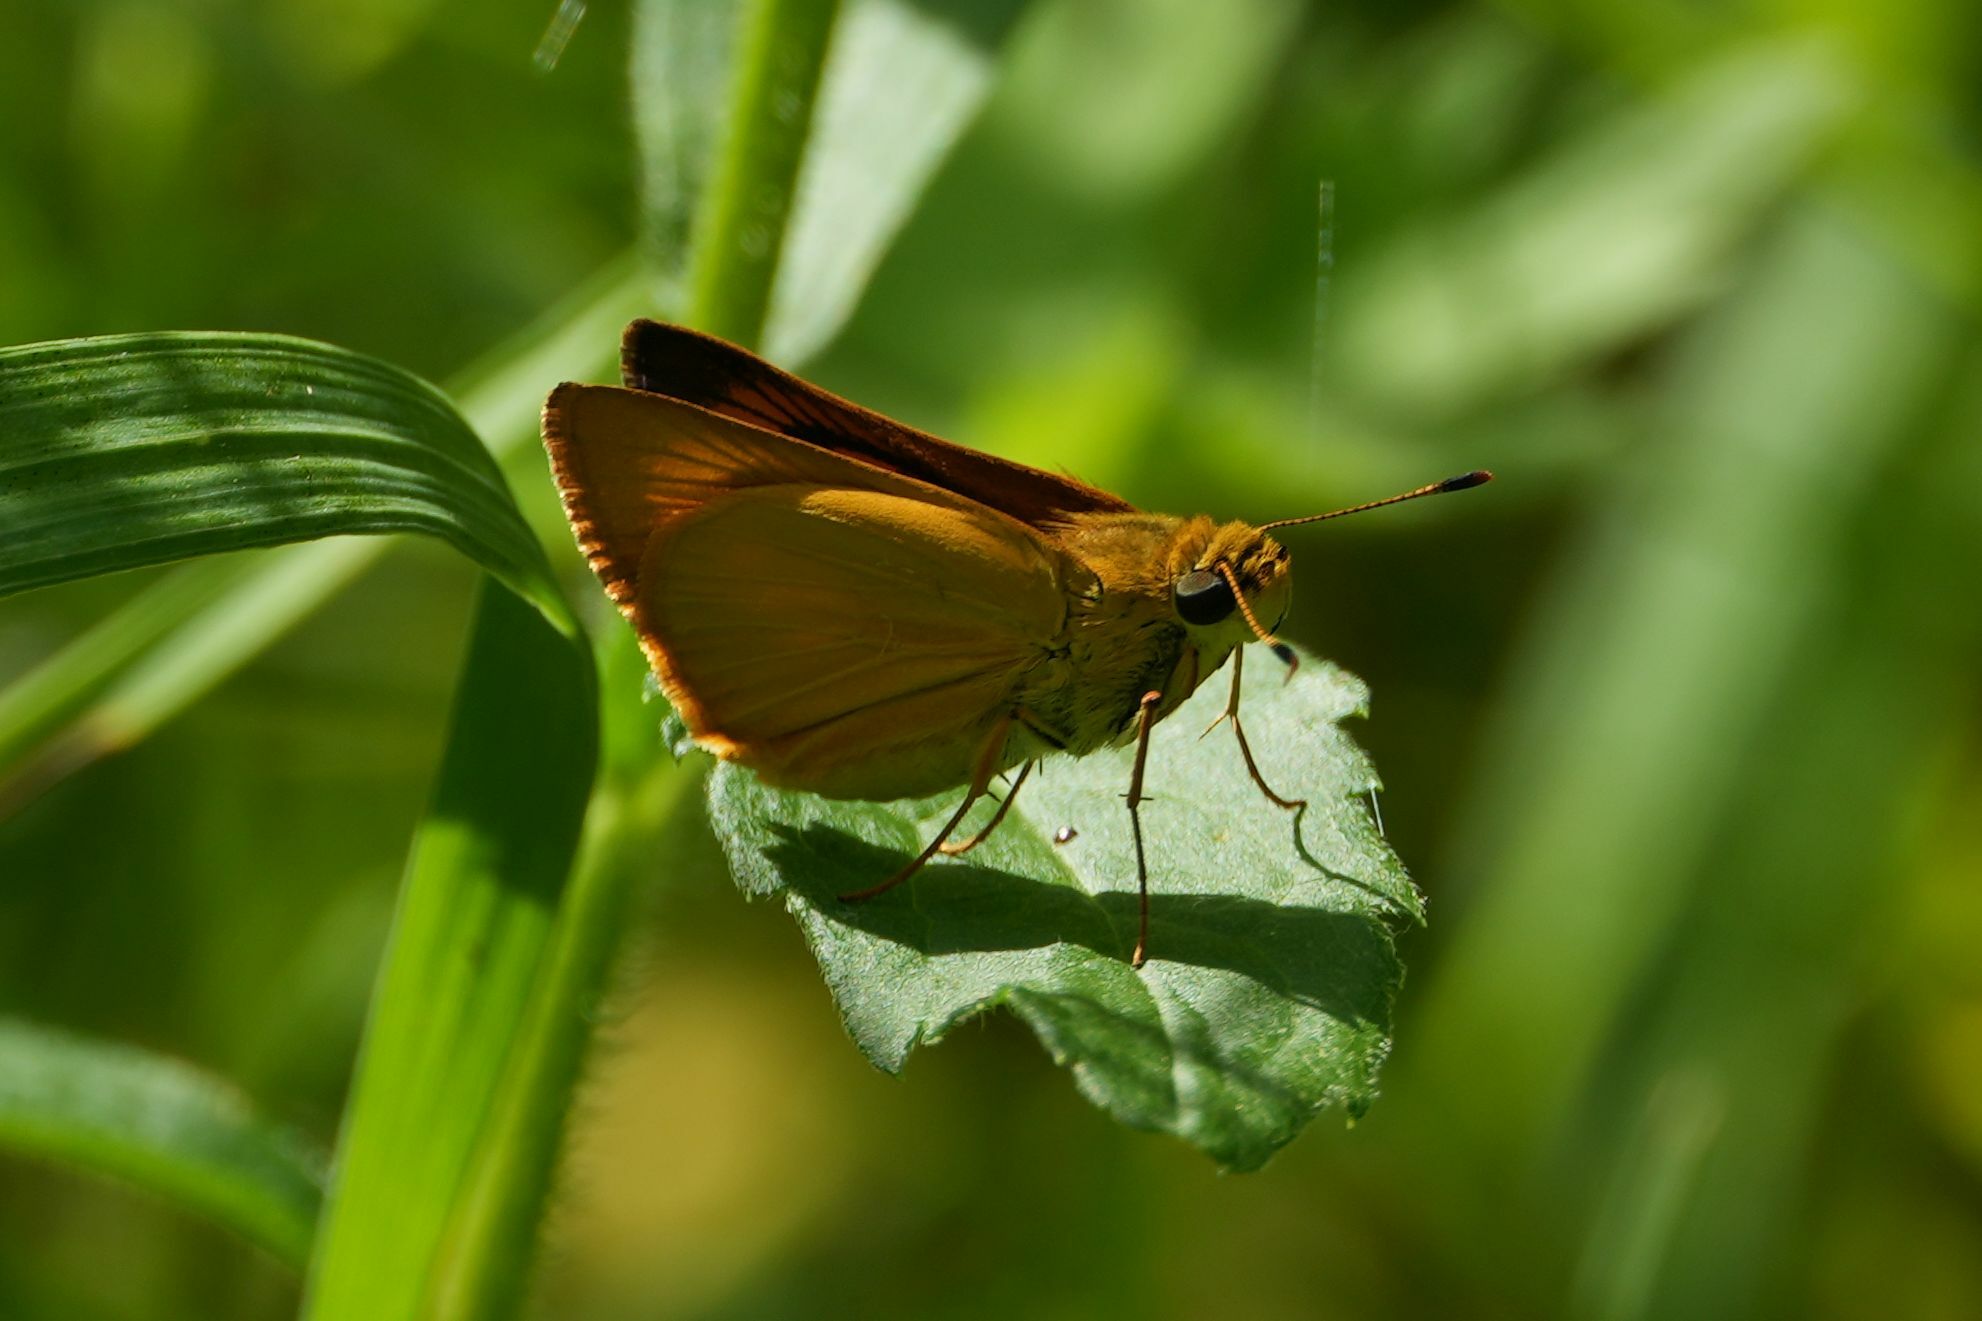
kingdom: Animalia
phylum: Arthropoda
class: Insecta
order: Lepidoptera
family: Hesperiidae
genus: Atrytone
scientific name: Atrytone delaware
